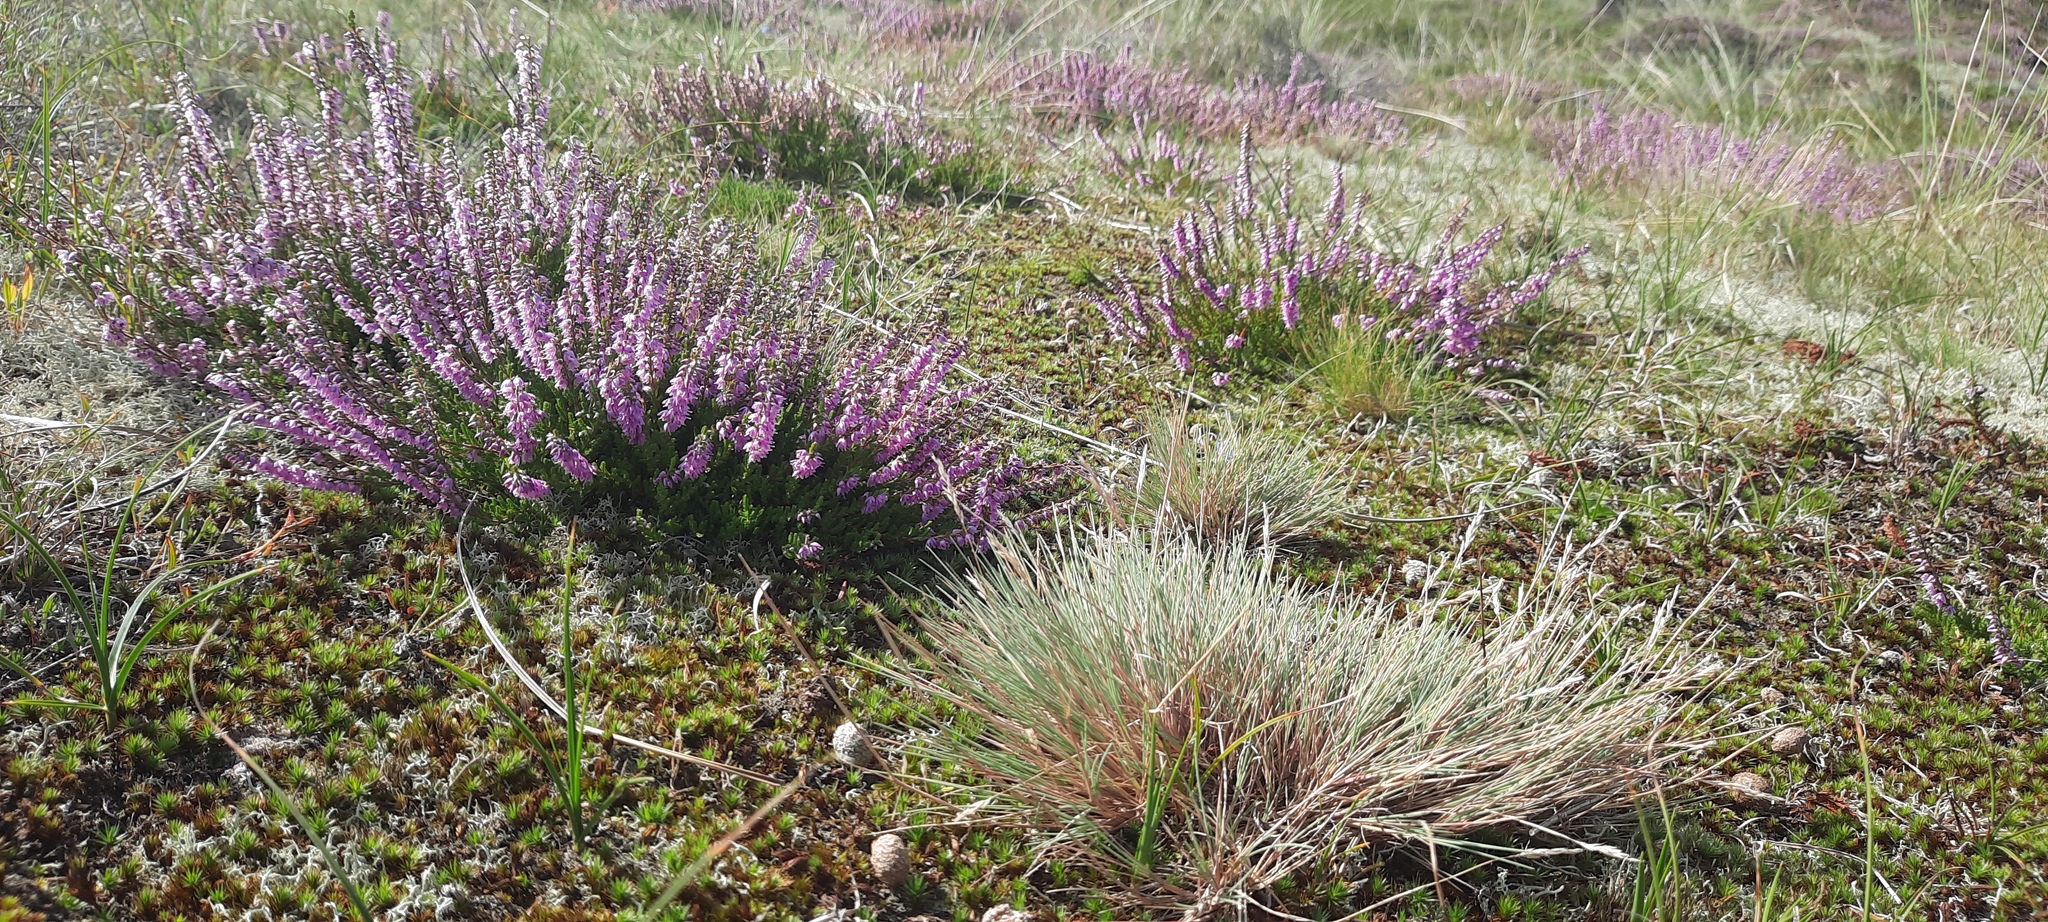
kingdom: Plantae
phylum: Tracheophyta
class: Magnoliopsida
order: Ericales
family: Ericaceae
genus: Calluna
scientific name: Calluna vulgaris
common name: Heather
